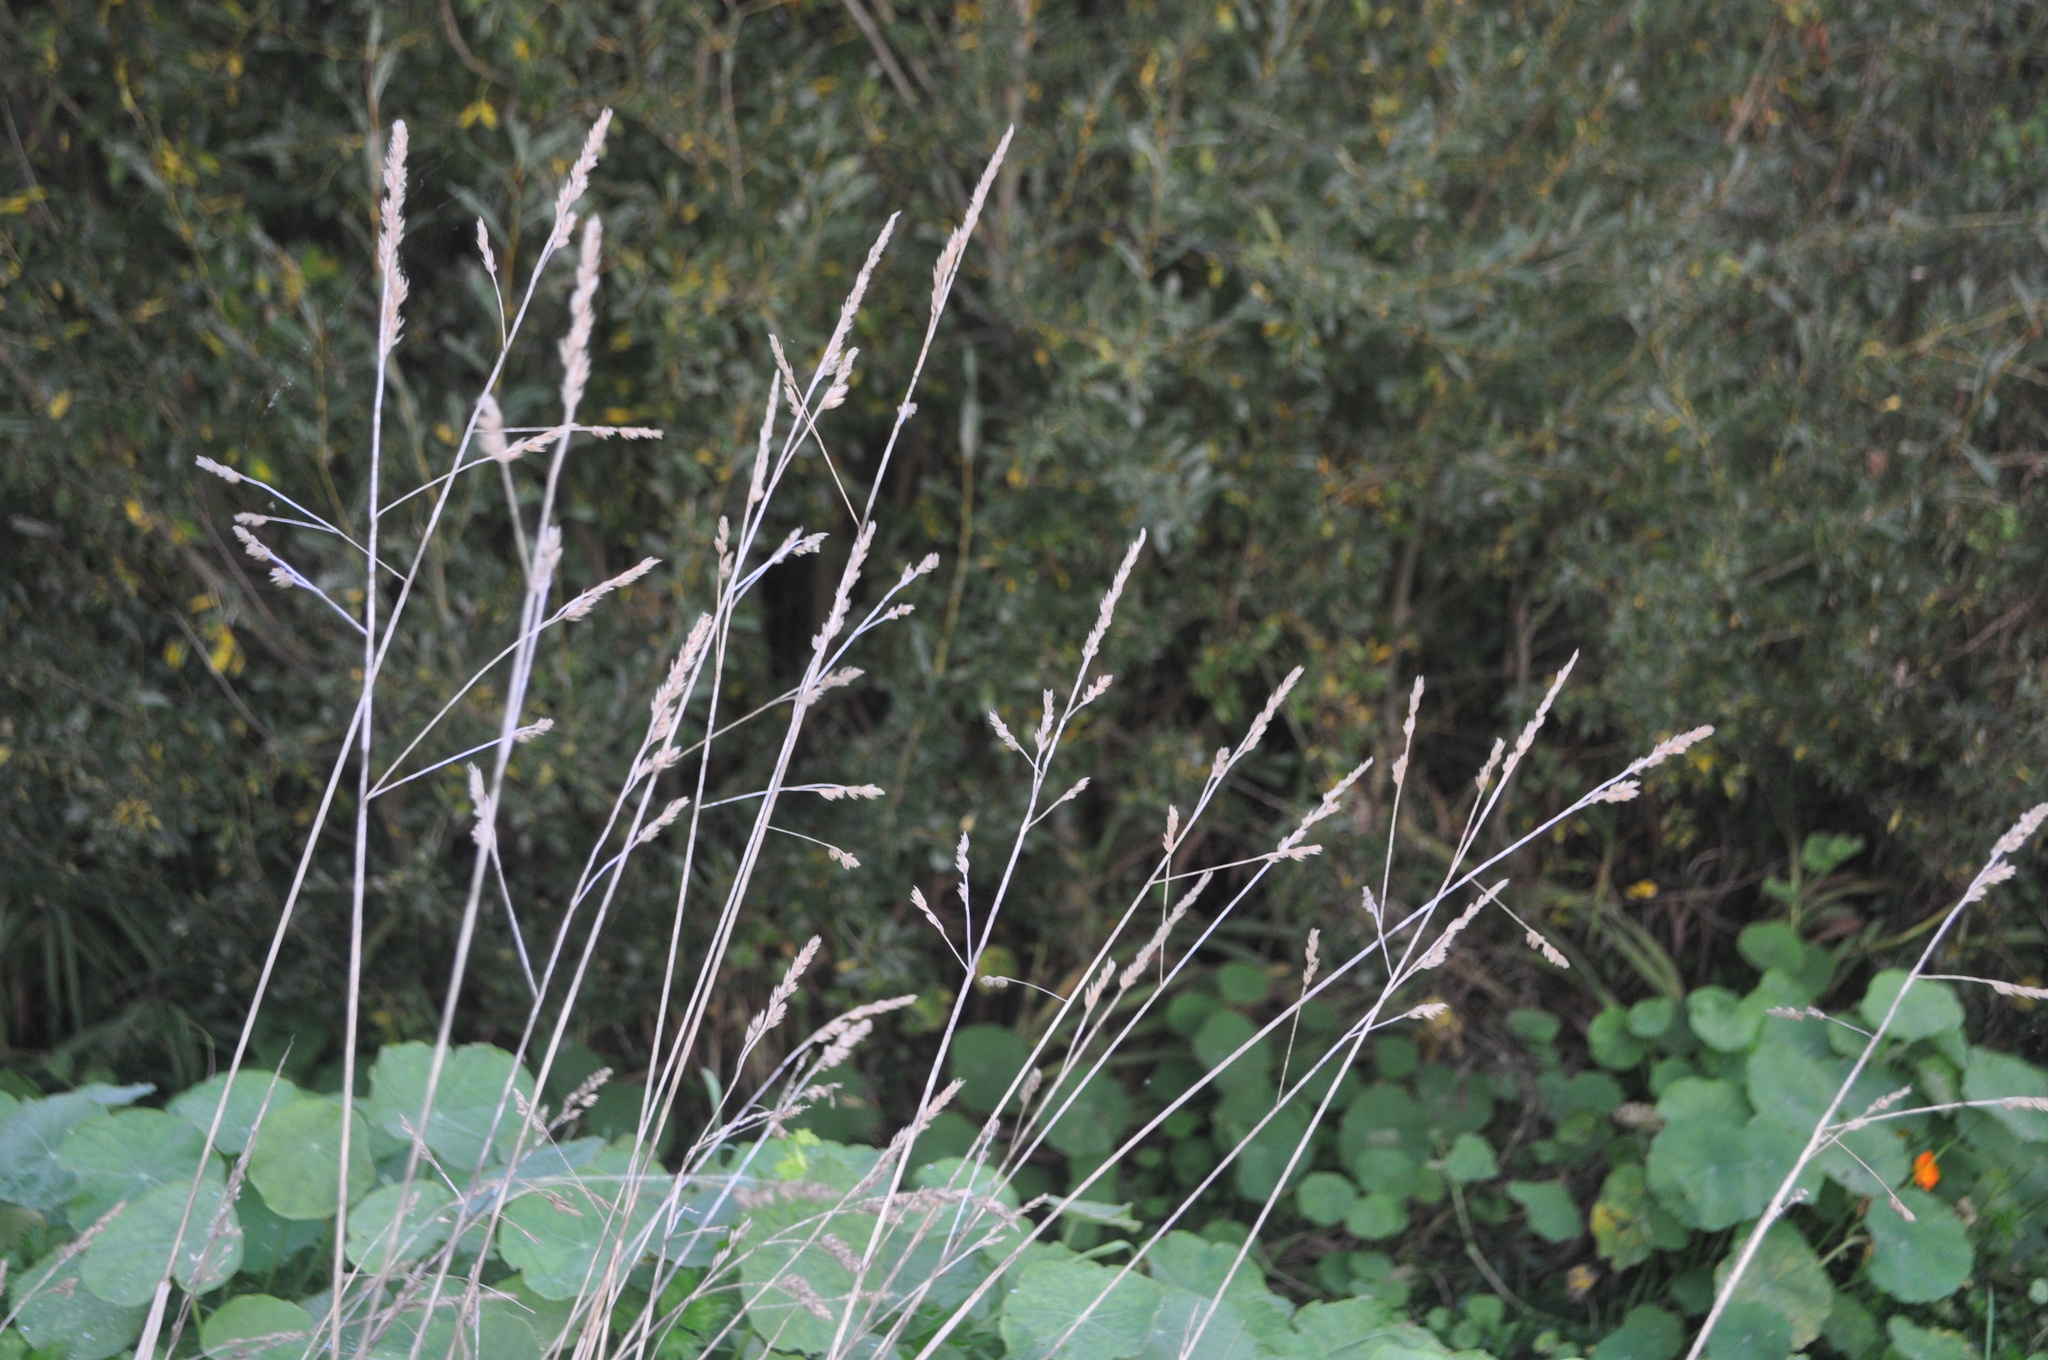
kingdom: Plantae
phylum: Tracheophyta
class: Liliopsida
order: Poales
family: Poaceae
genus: Dactylis
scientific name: Dactylis glomerata
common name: Orchardgrass
